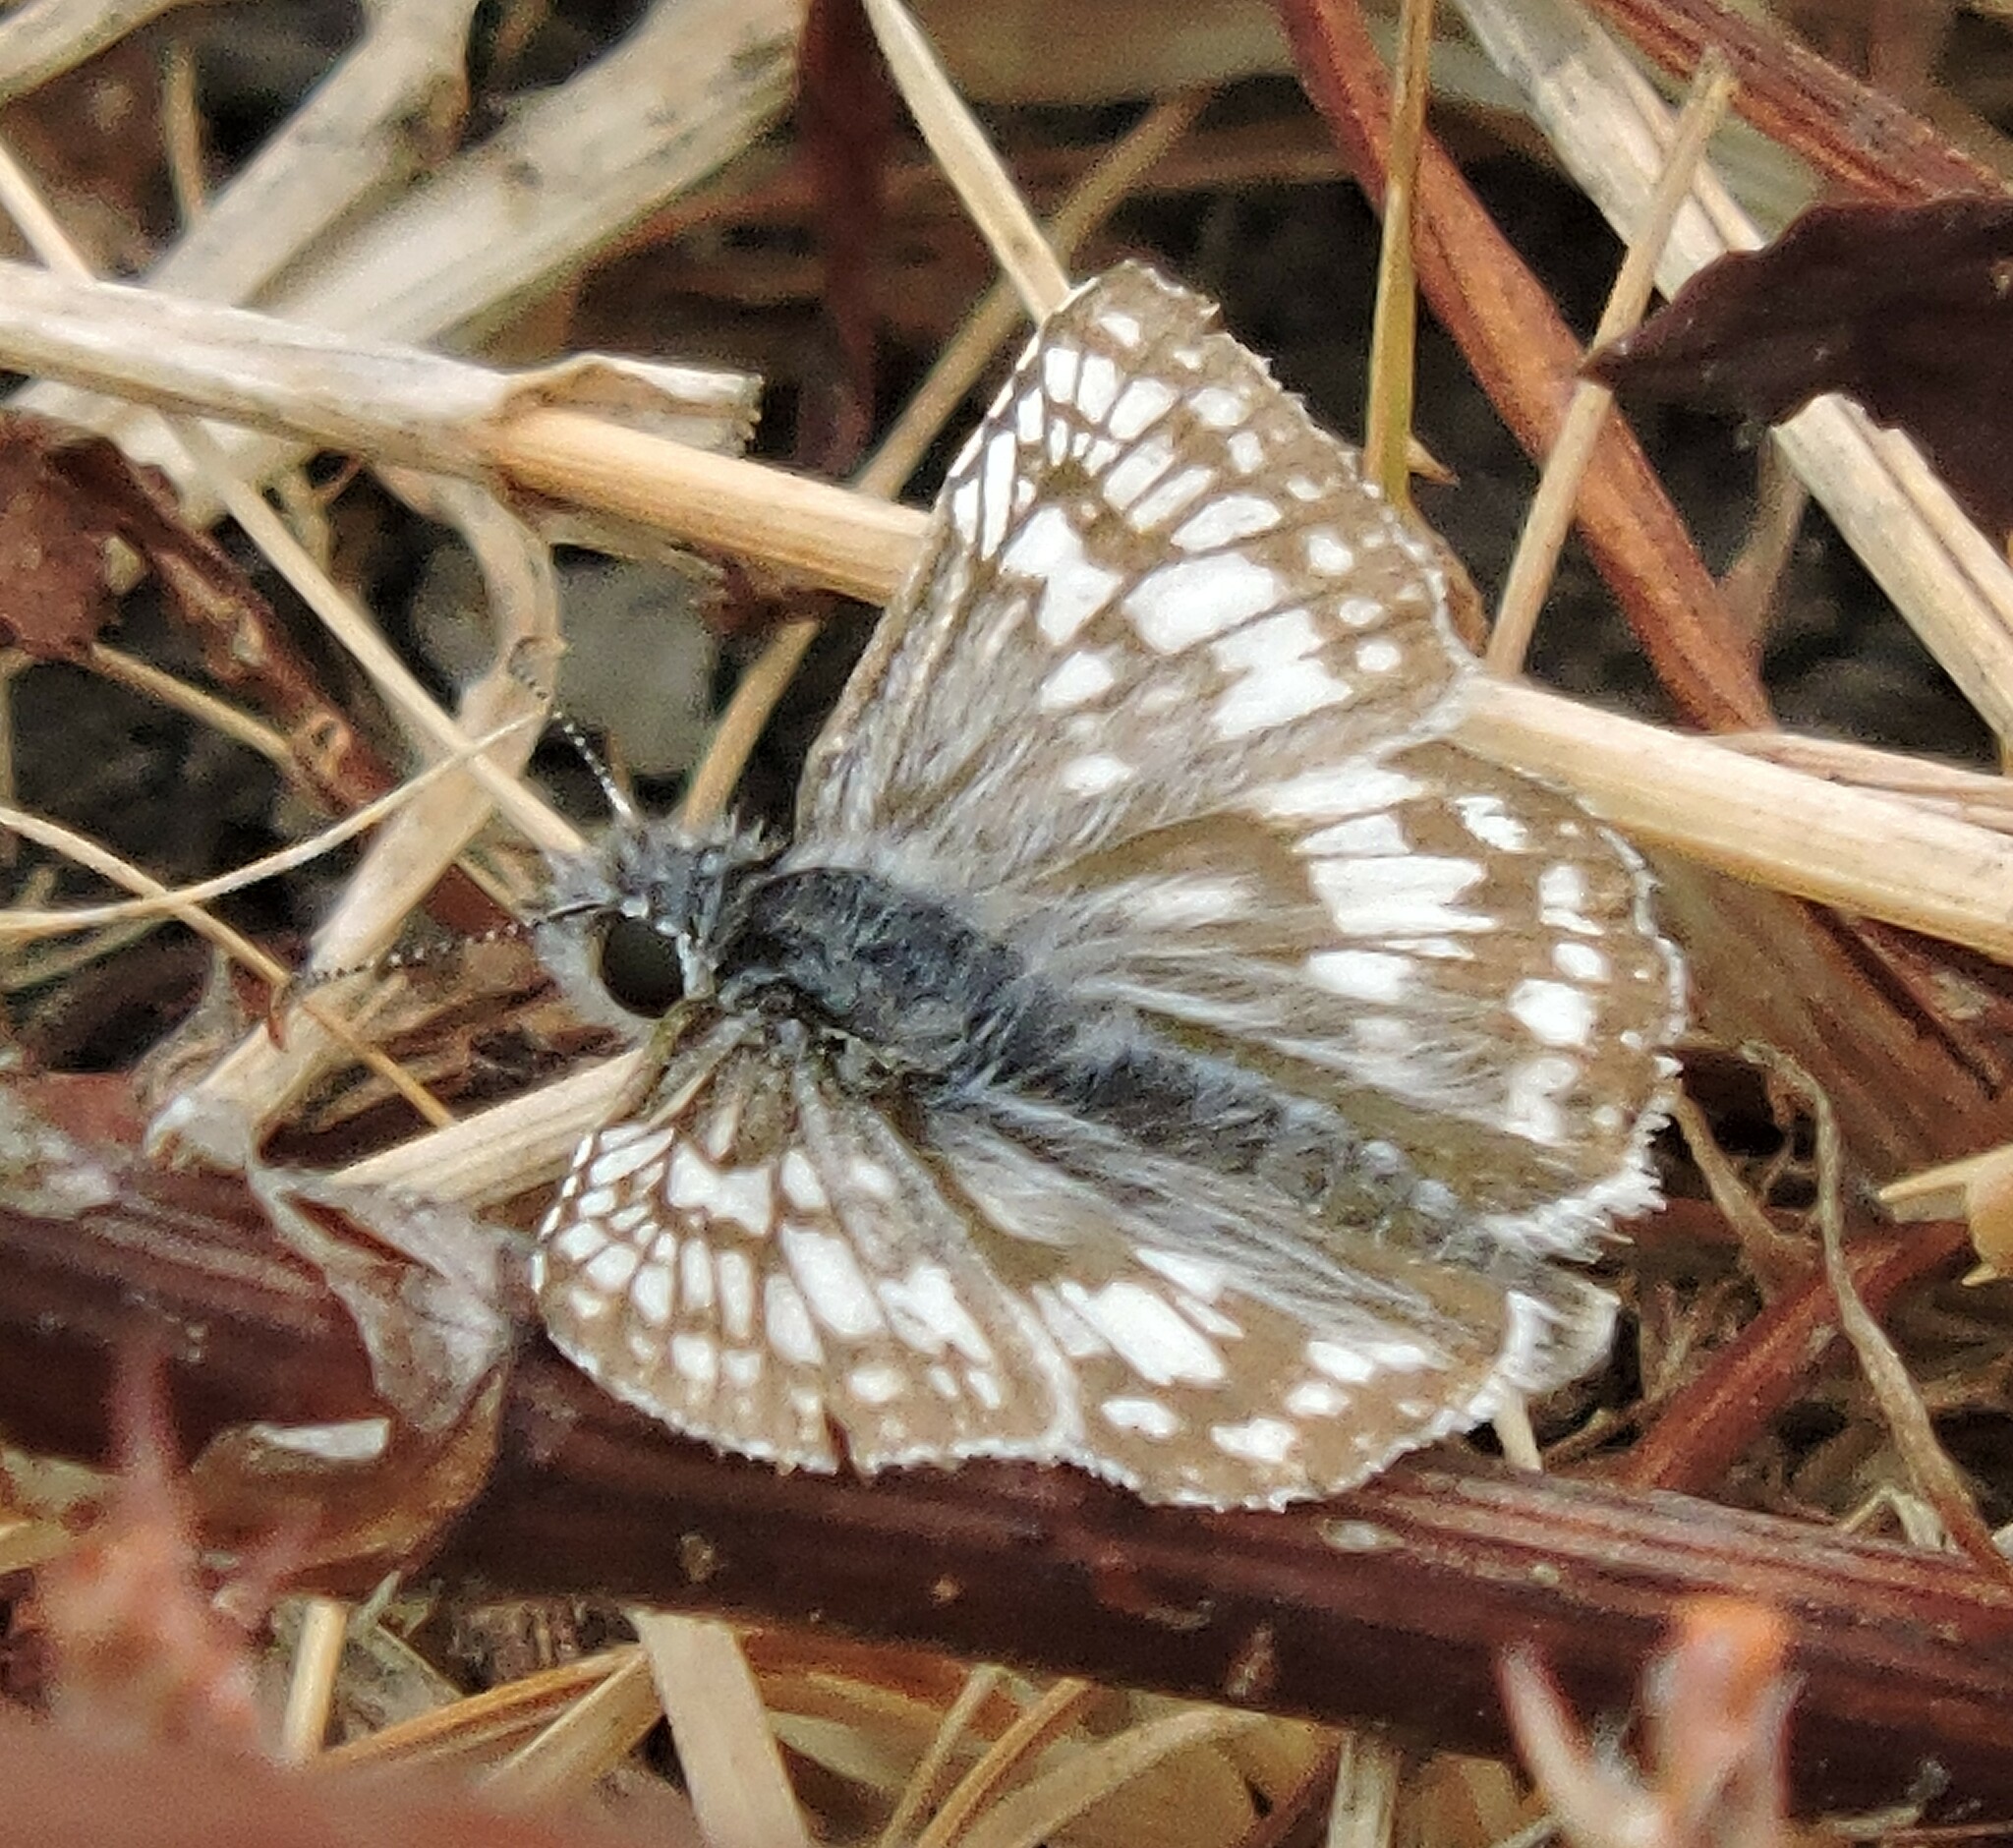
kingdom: Animalia
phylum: Arthropoda
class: Insecta
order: Lepidoptera
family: Hesperiidae
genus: Burnsius
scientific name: Burnsius communis
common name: Common checkered-skipper
